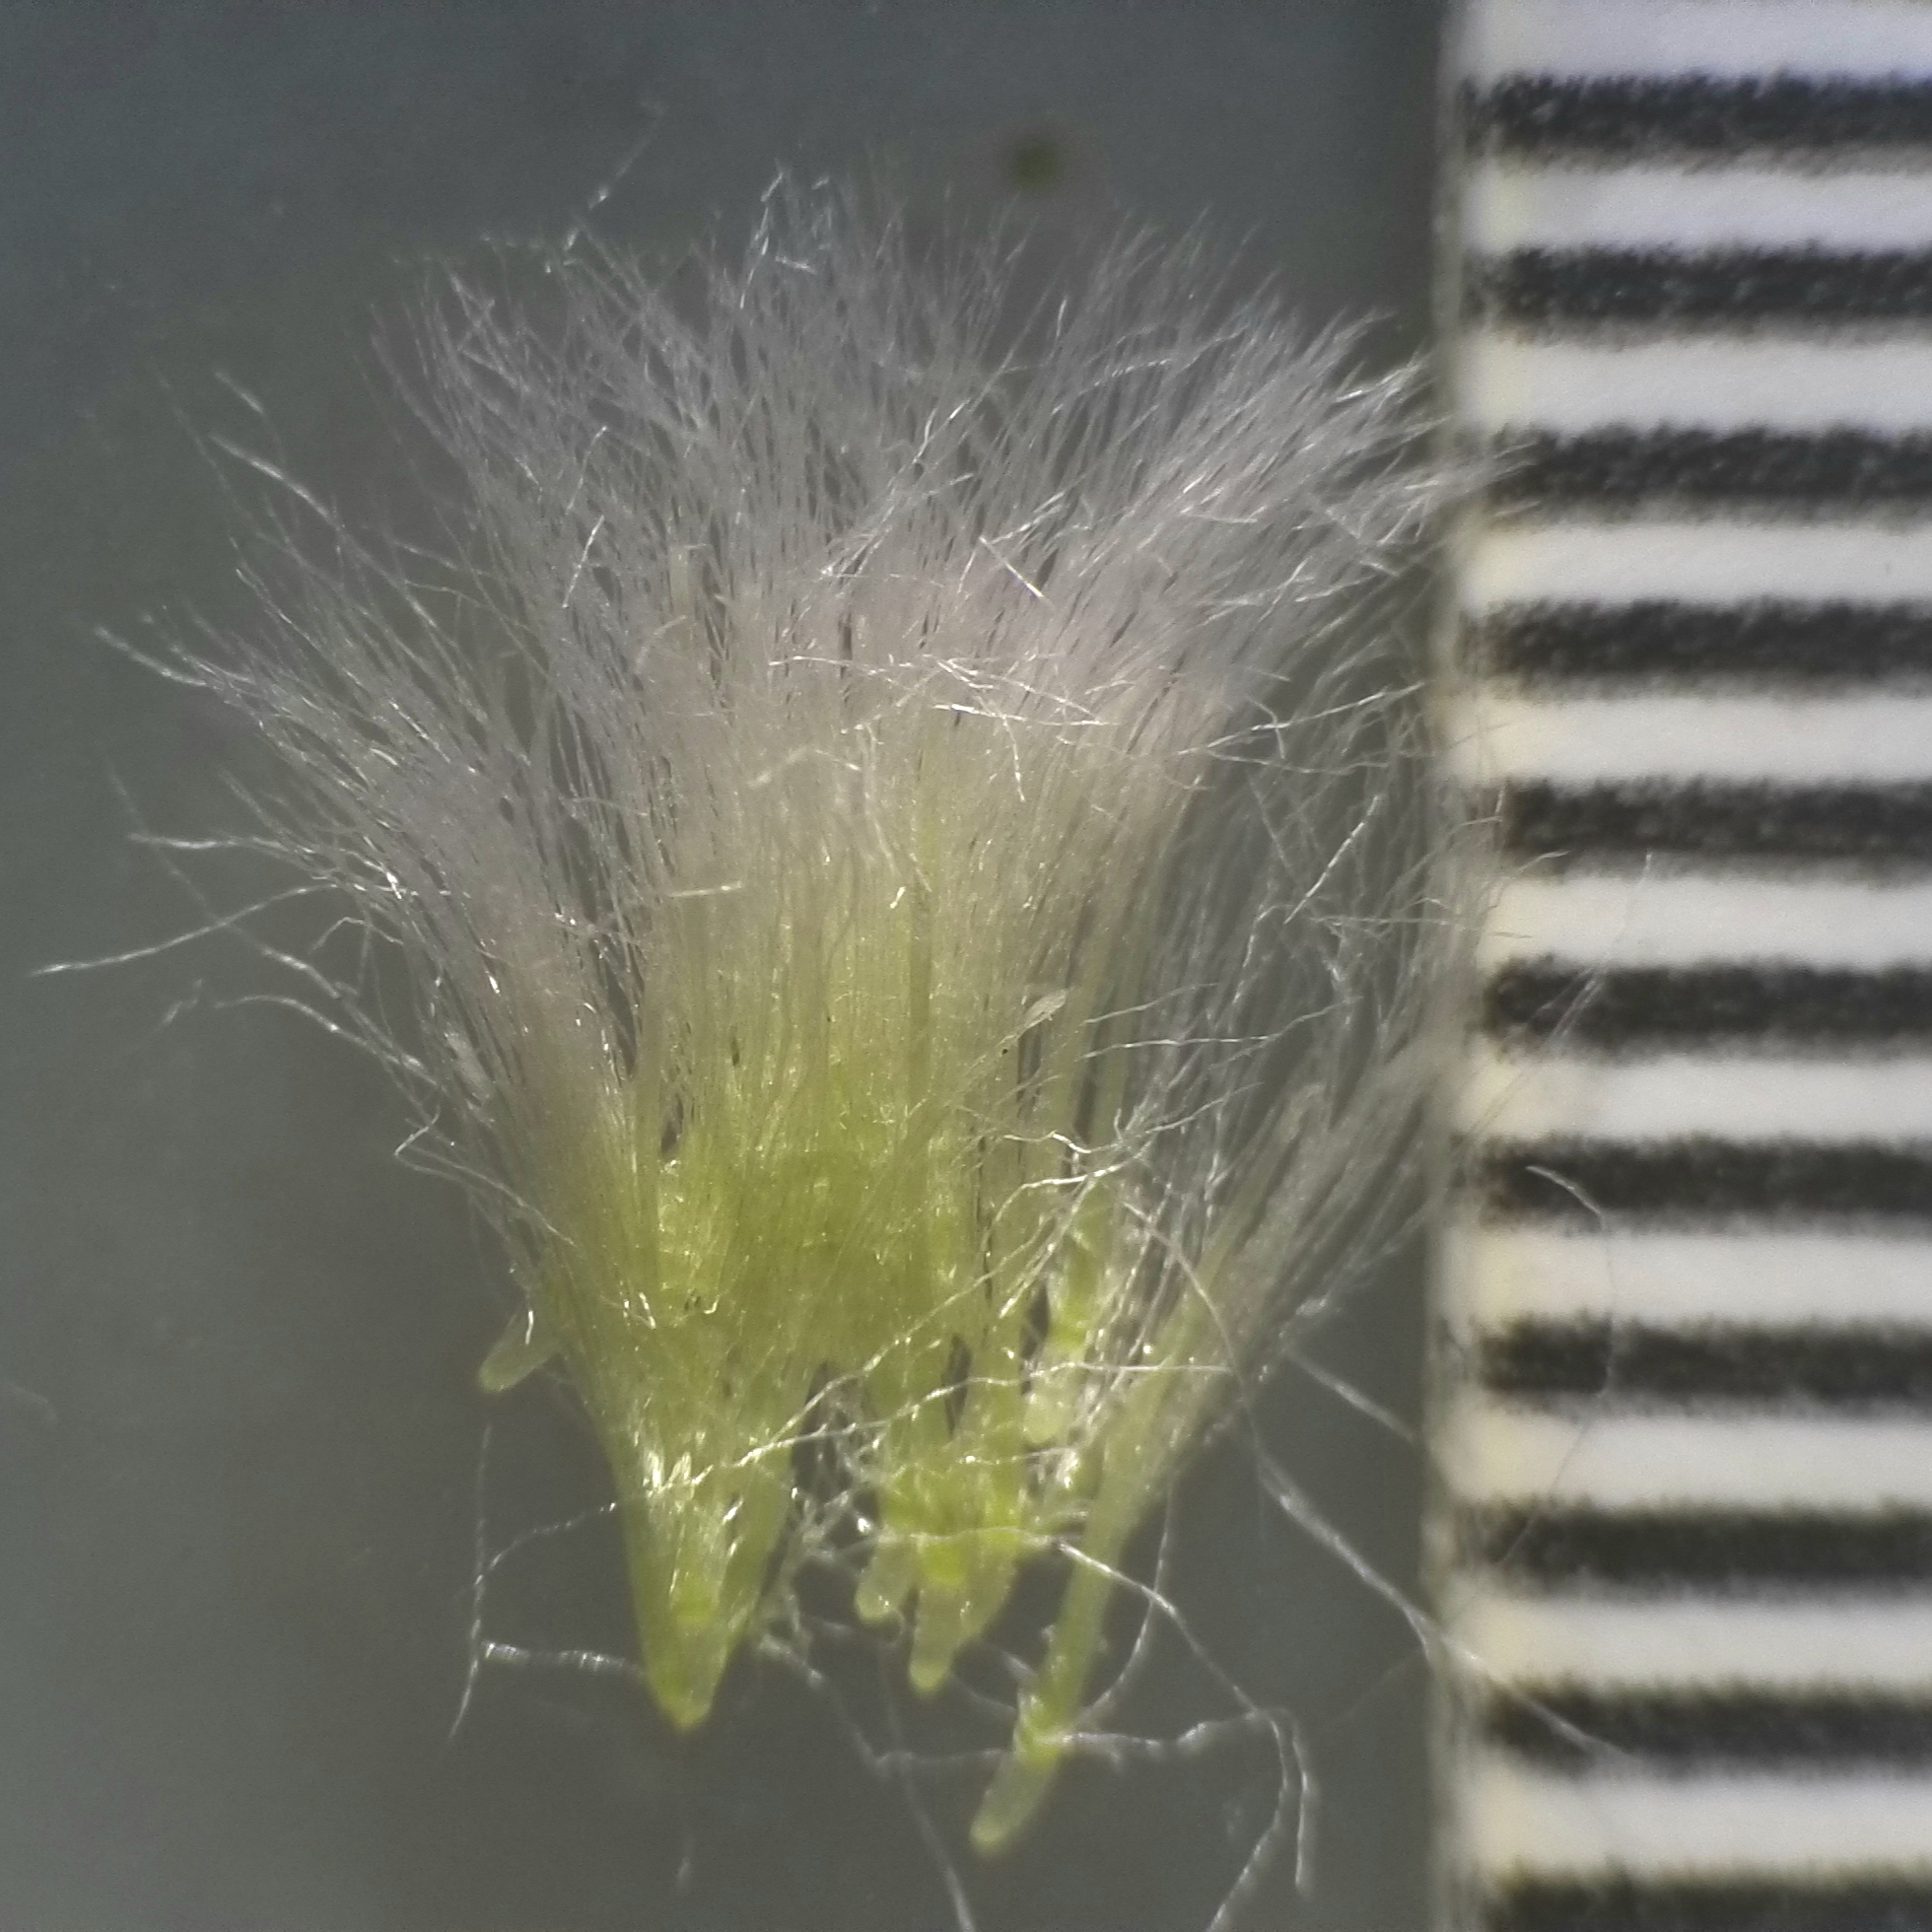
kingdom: Plantae
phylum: Tracheophyta
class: Magnoliopsida
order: Asterales
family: Asteraceae
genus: Antennaria
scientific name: Antennaria howellii
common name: Howell's pussytoes
